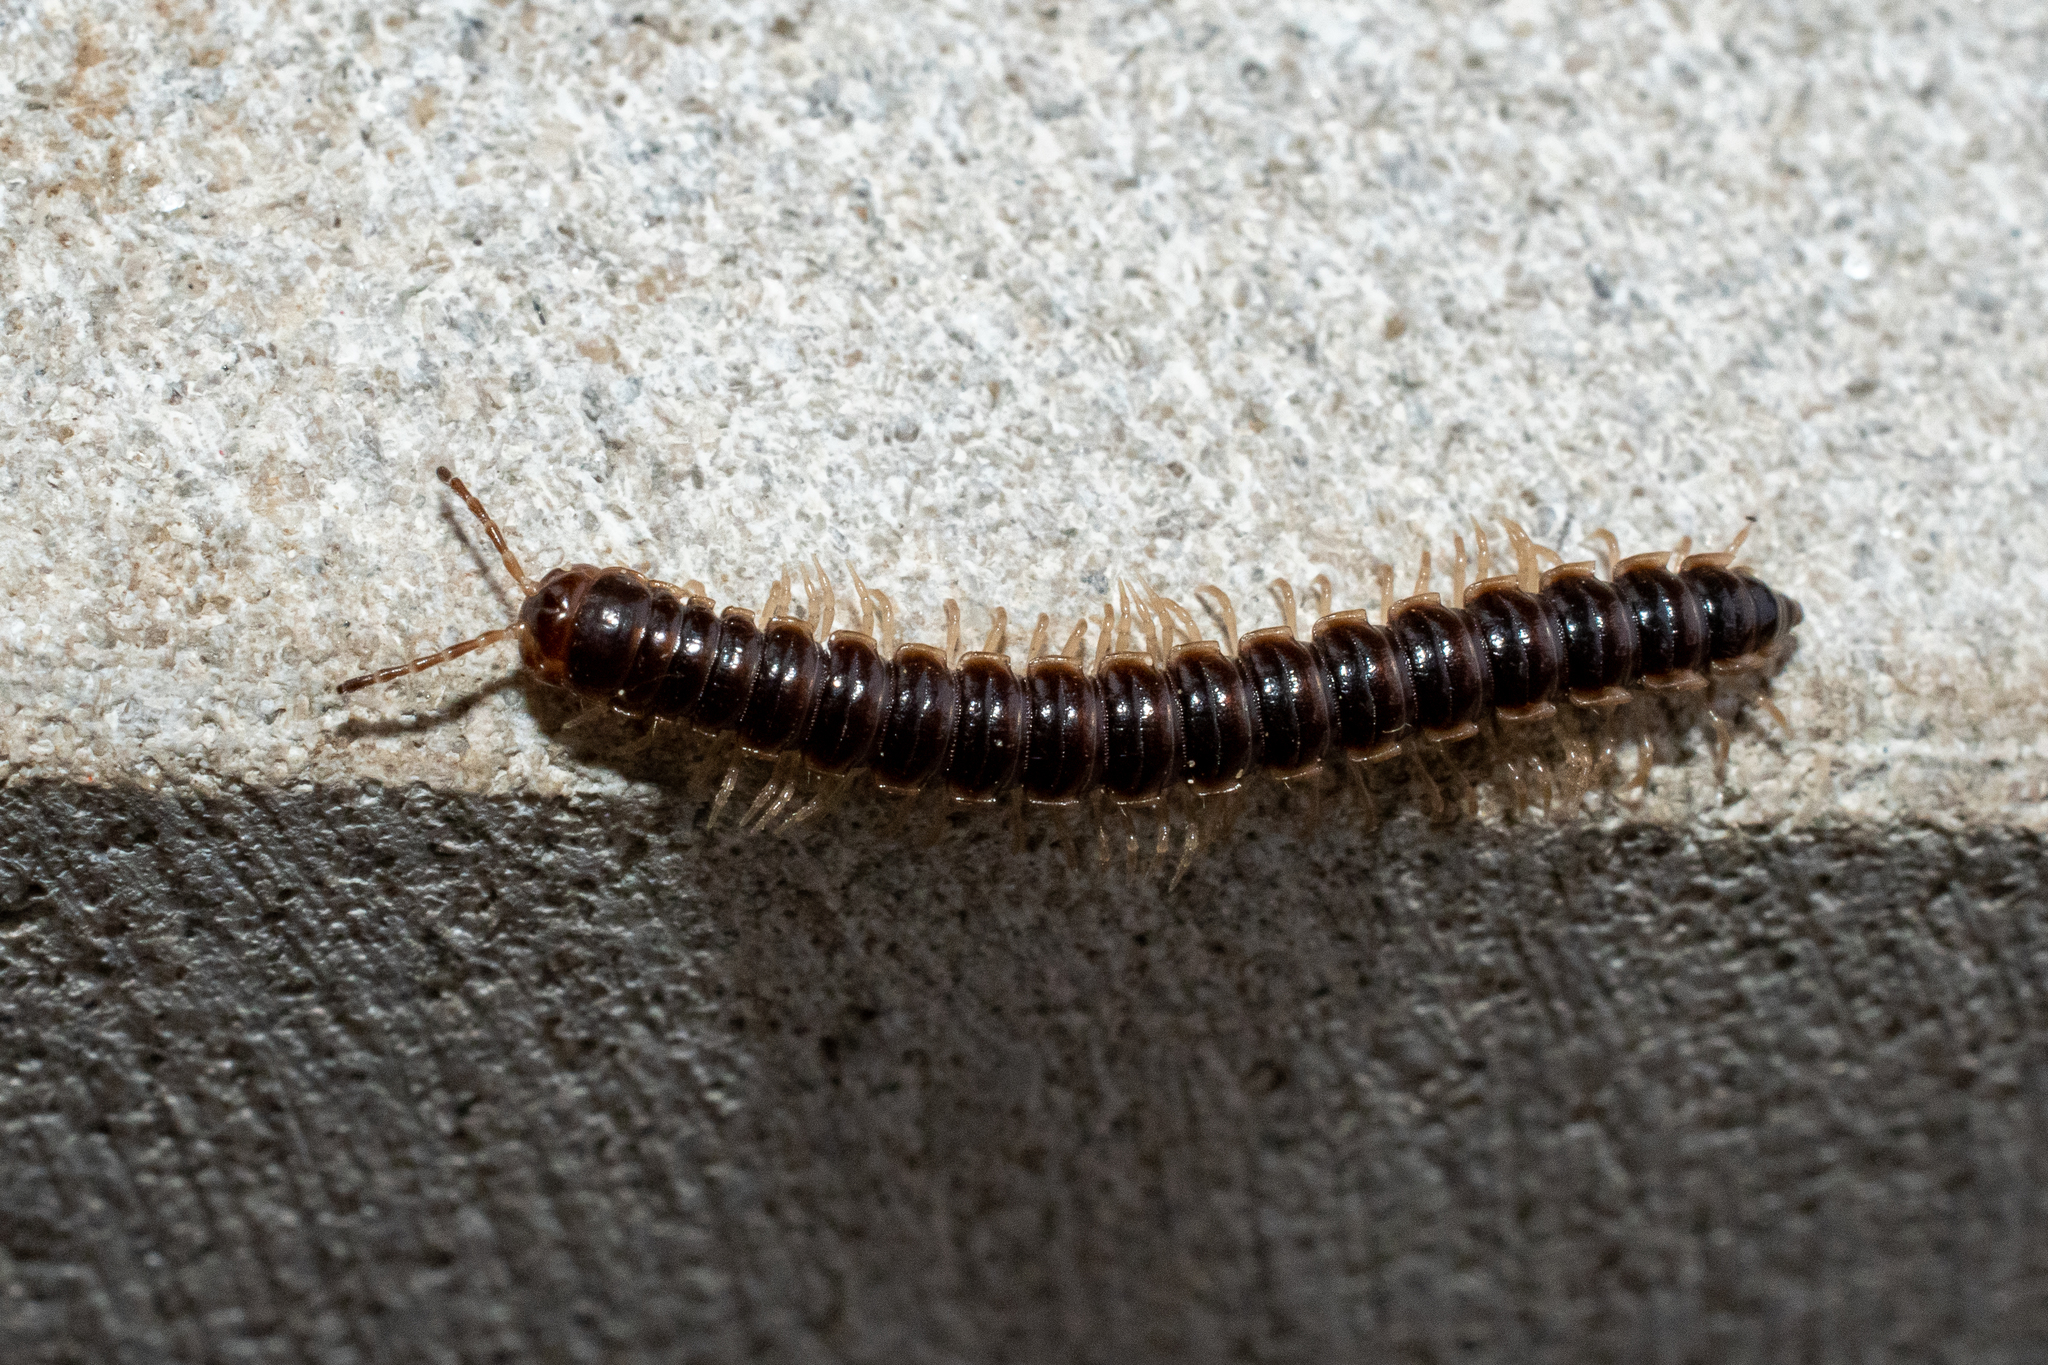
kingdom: Animalia
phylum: Arthropoda
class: Diplopoda
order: Polydesmida
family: Paradoxosomatidae
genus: Oxidus
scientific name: Oxidus gracilis
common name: Greenhouse millipede
